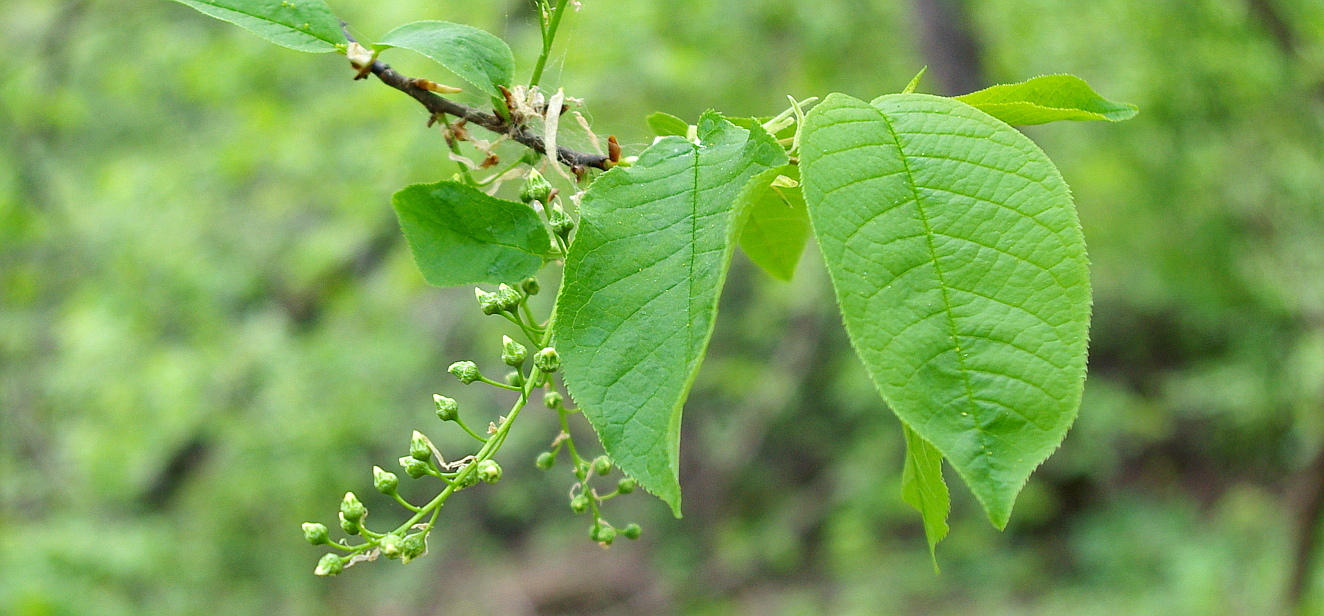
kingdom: Plantae
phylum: Tracheophyta
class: Magnoliopsida
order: Rosales
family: Rosaceae
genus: Prunus
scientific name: Prunus padus
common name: Bird cherry
